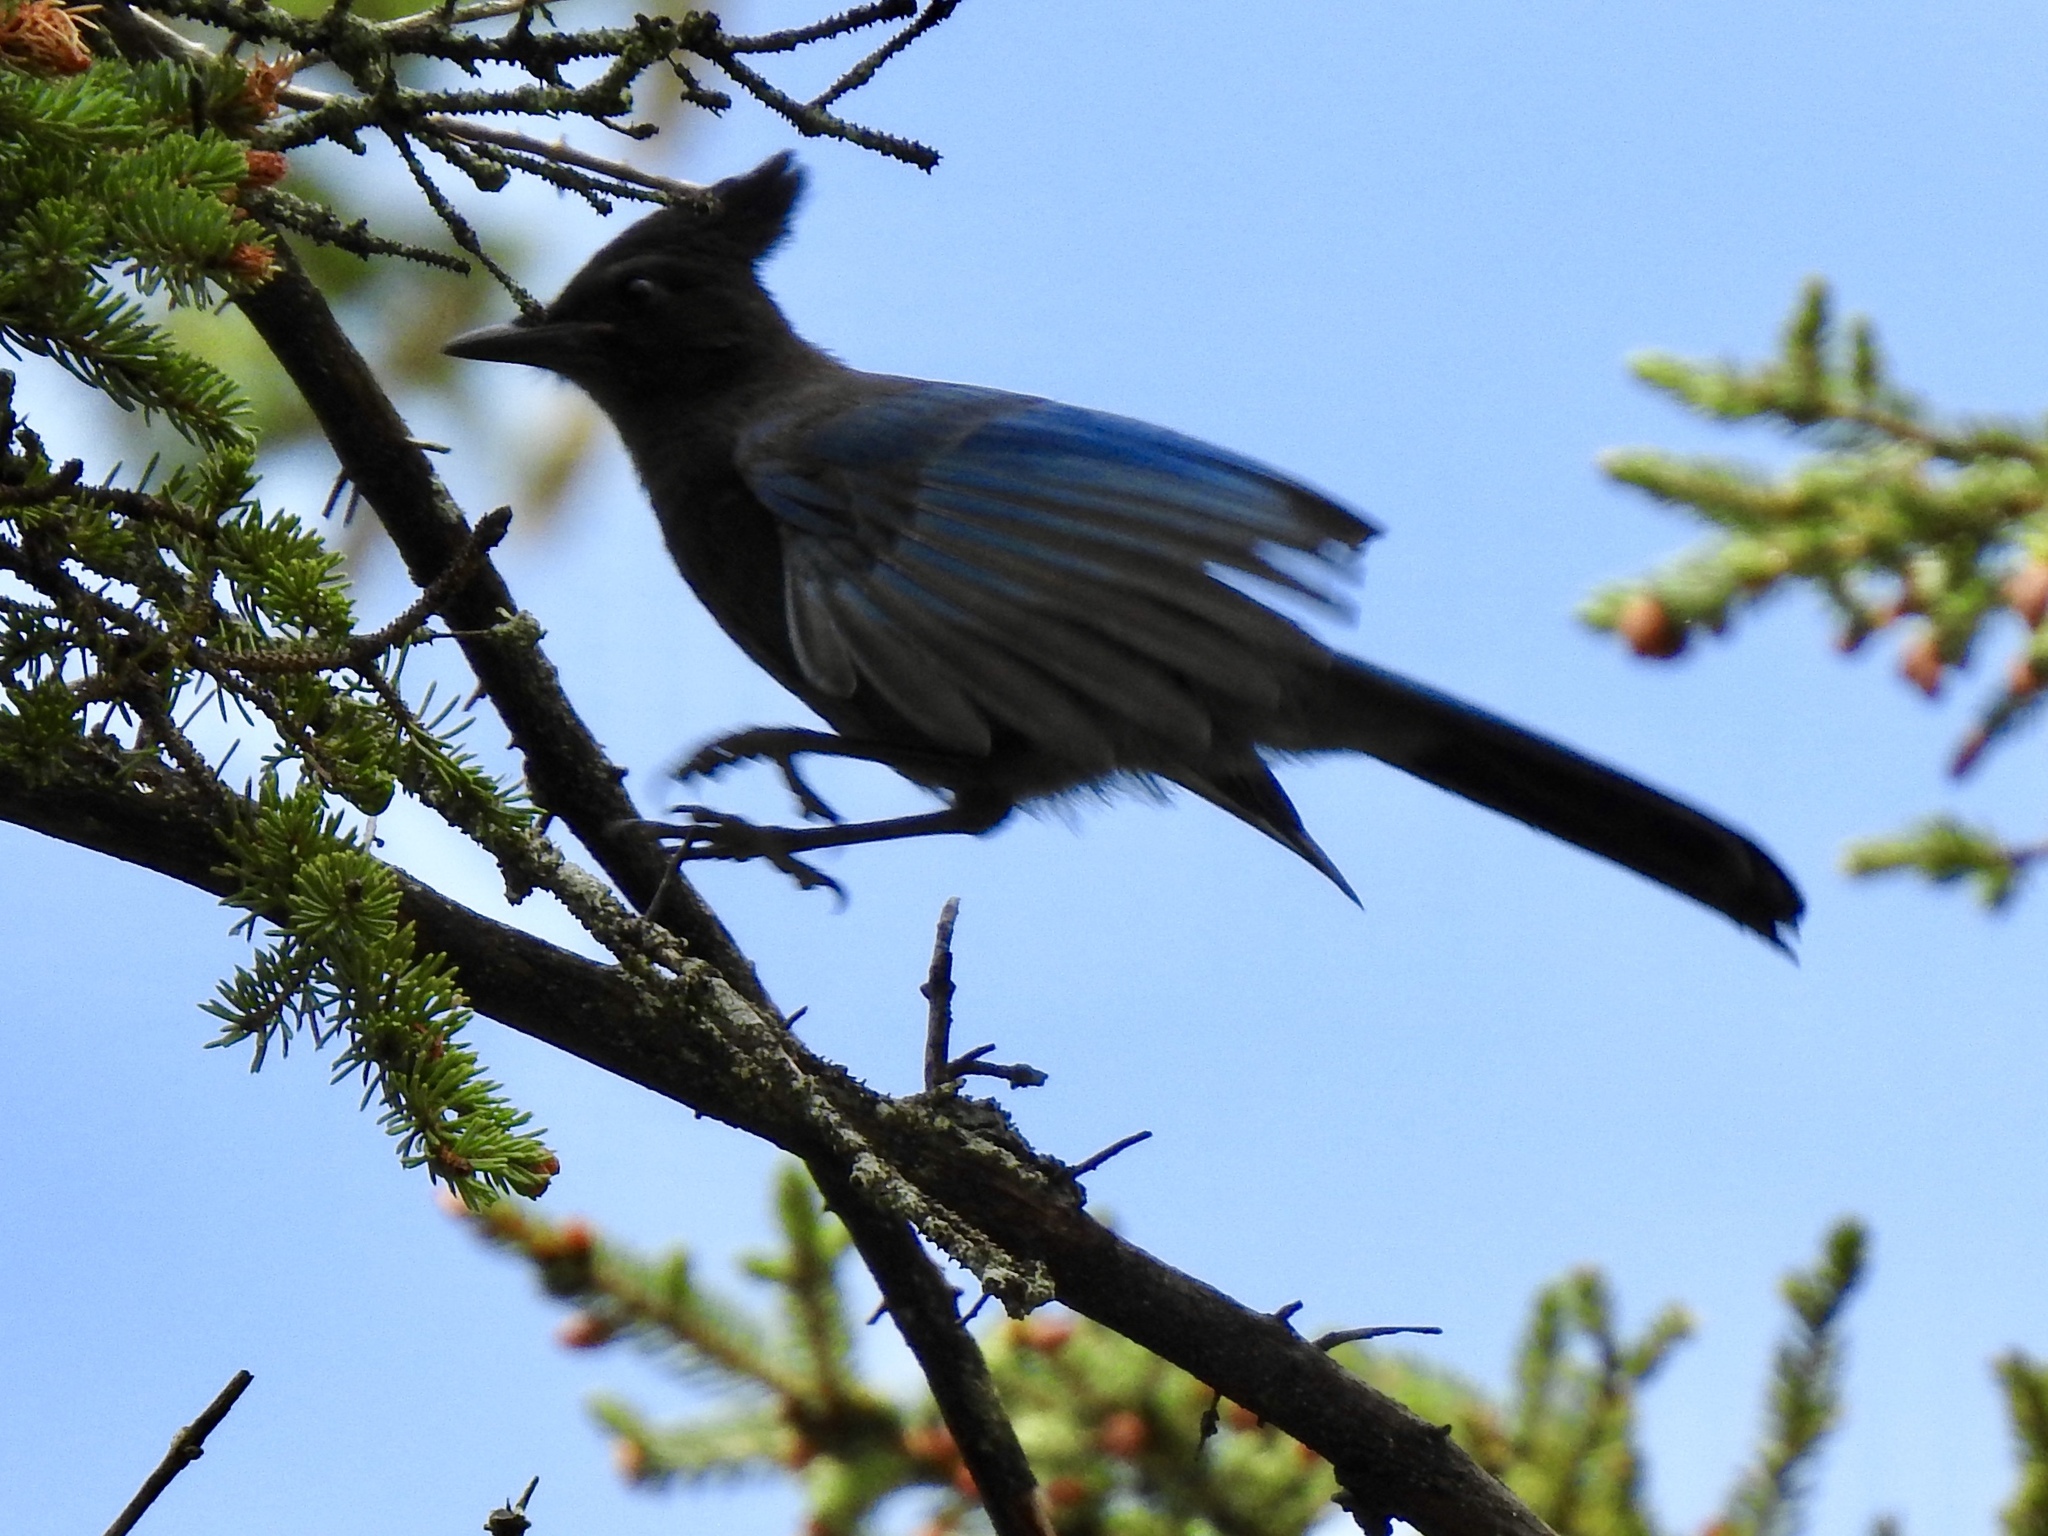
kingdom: Animalia
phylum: Chordata
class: Aves
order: Passeriformes
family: Corvidae
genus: Cyanocitta
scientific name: Cyanocitta stelleri
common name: Steller's jay
